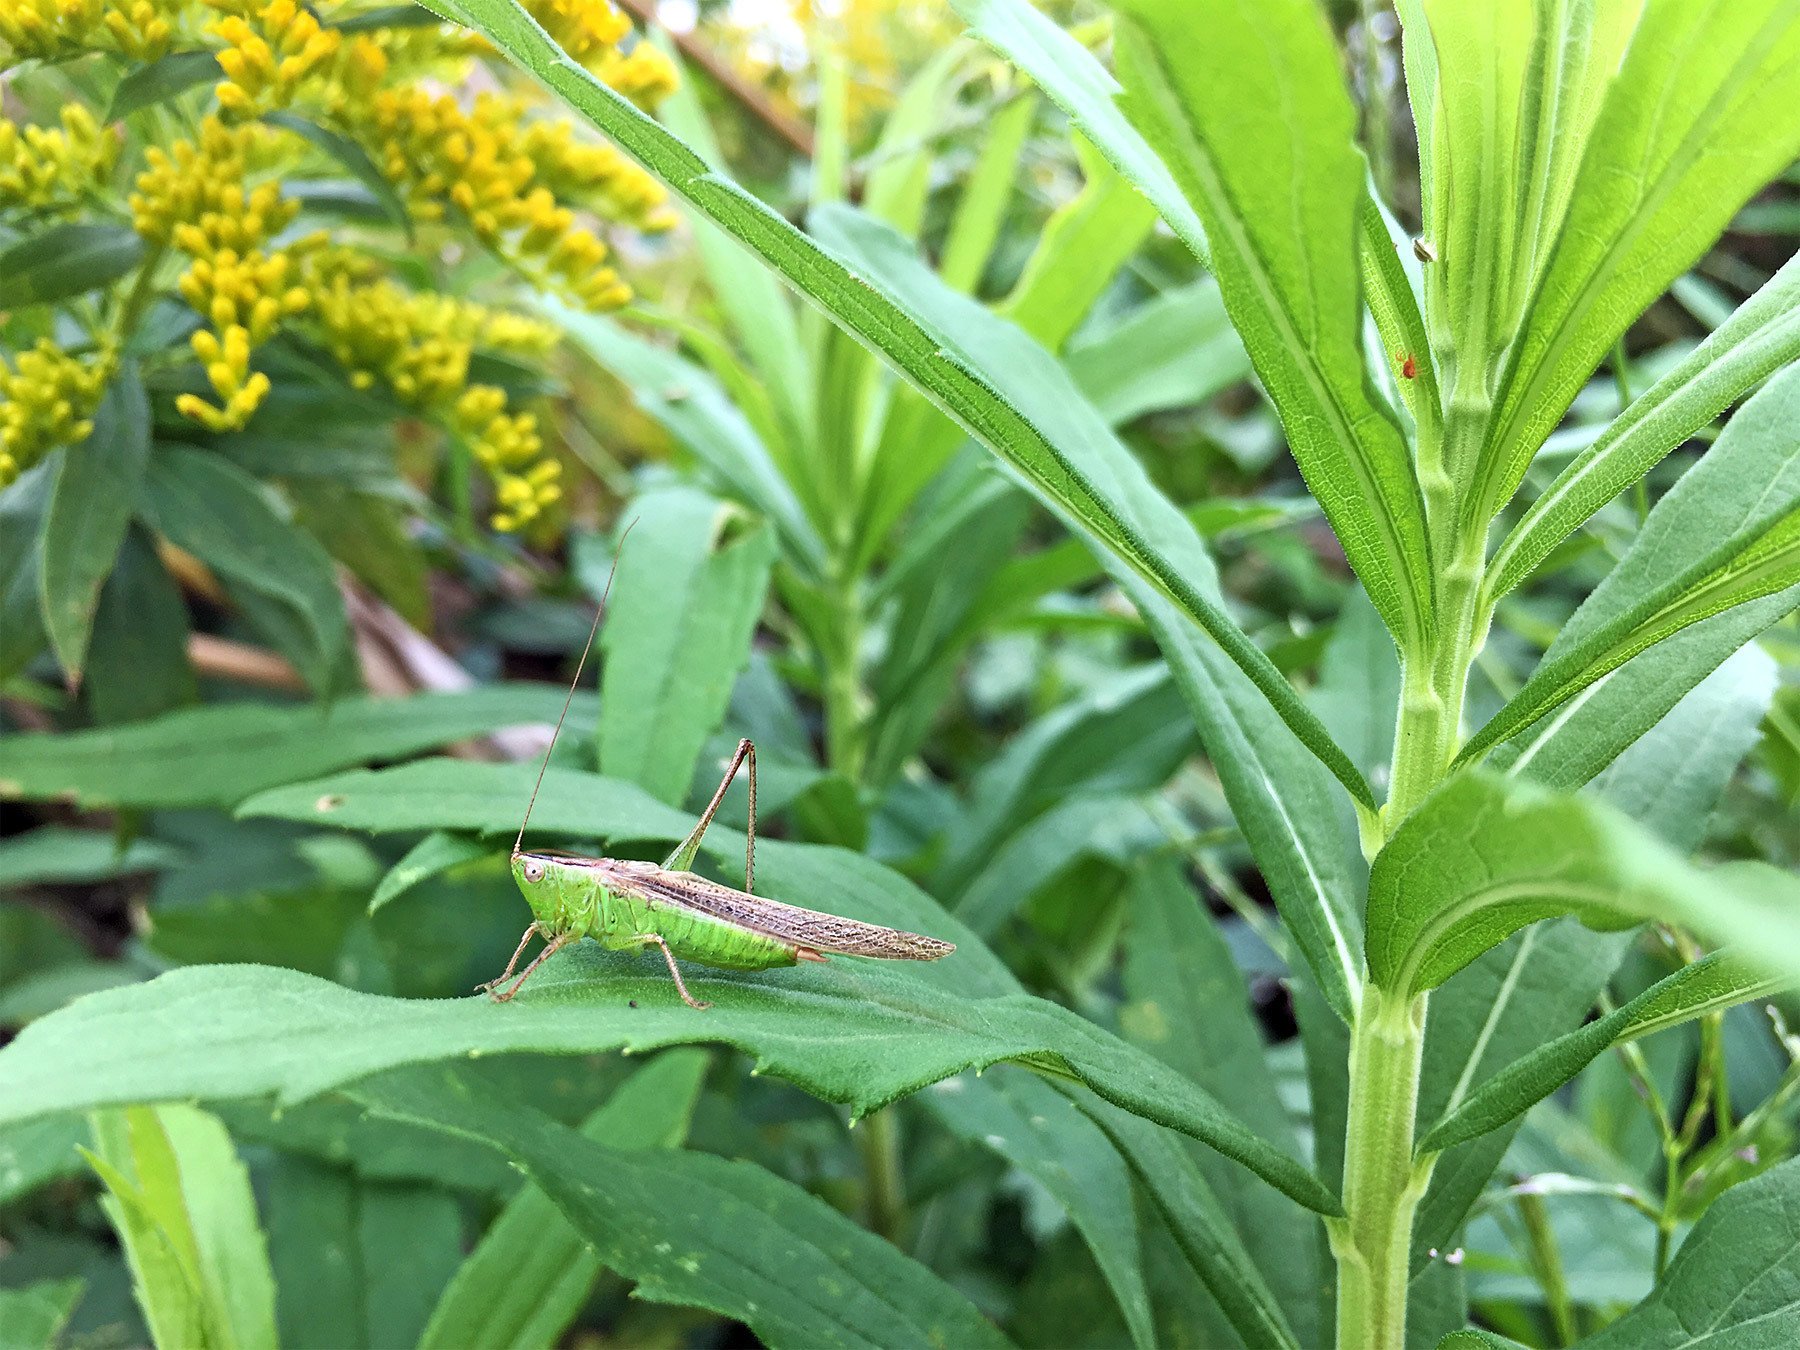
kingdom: Animalia
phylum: Arthropoda
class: Insecta
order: Orthoptera
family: Tettigoniidae
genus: Conocephalus
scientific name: Conocephalus maculatus
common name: Spotted meadow katydid
